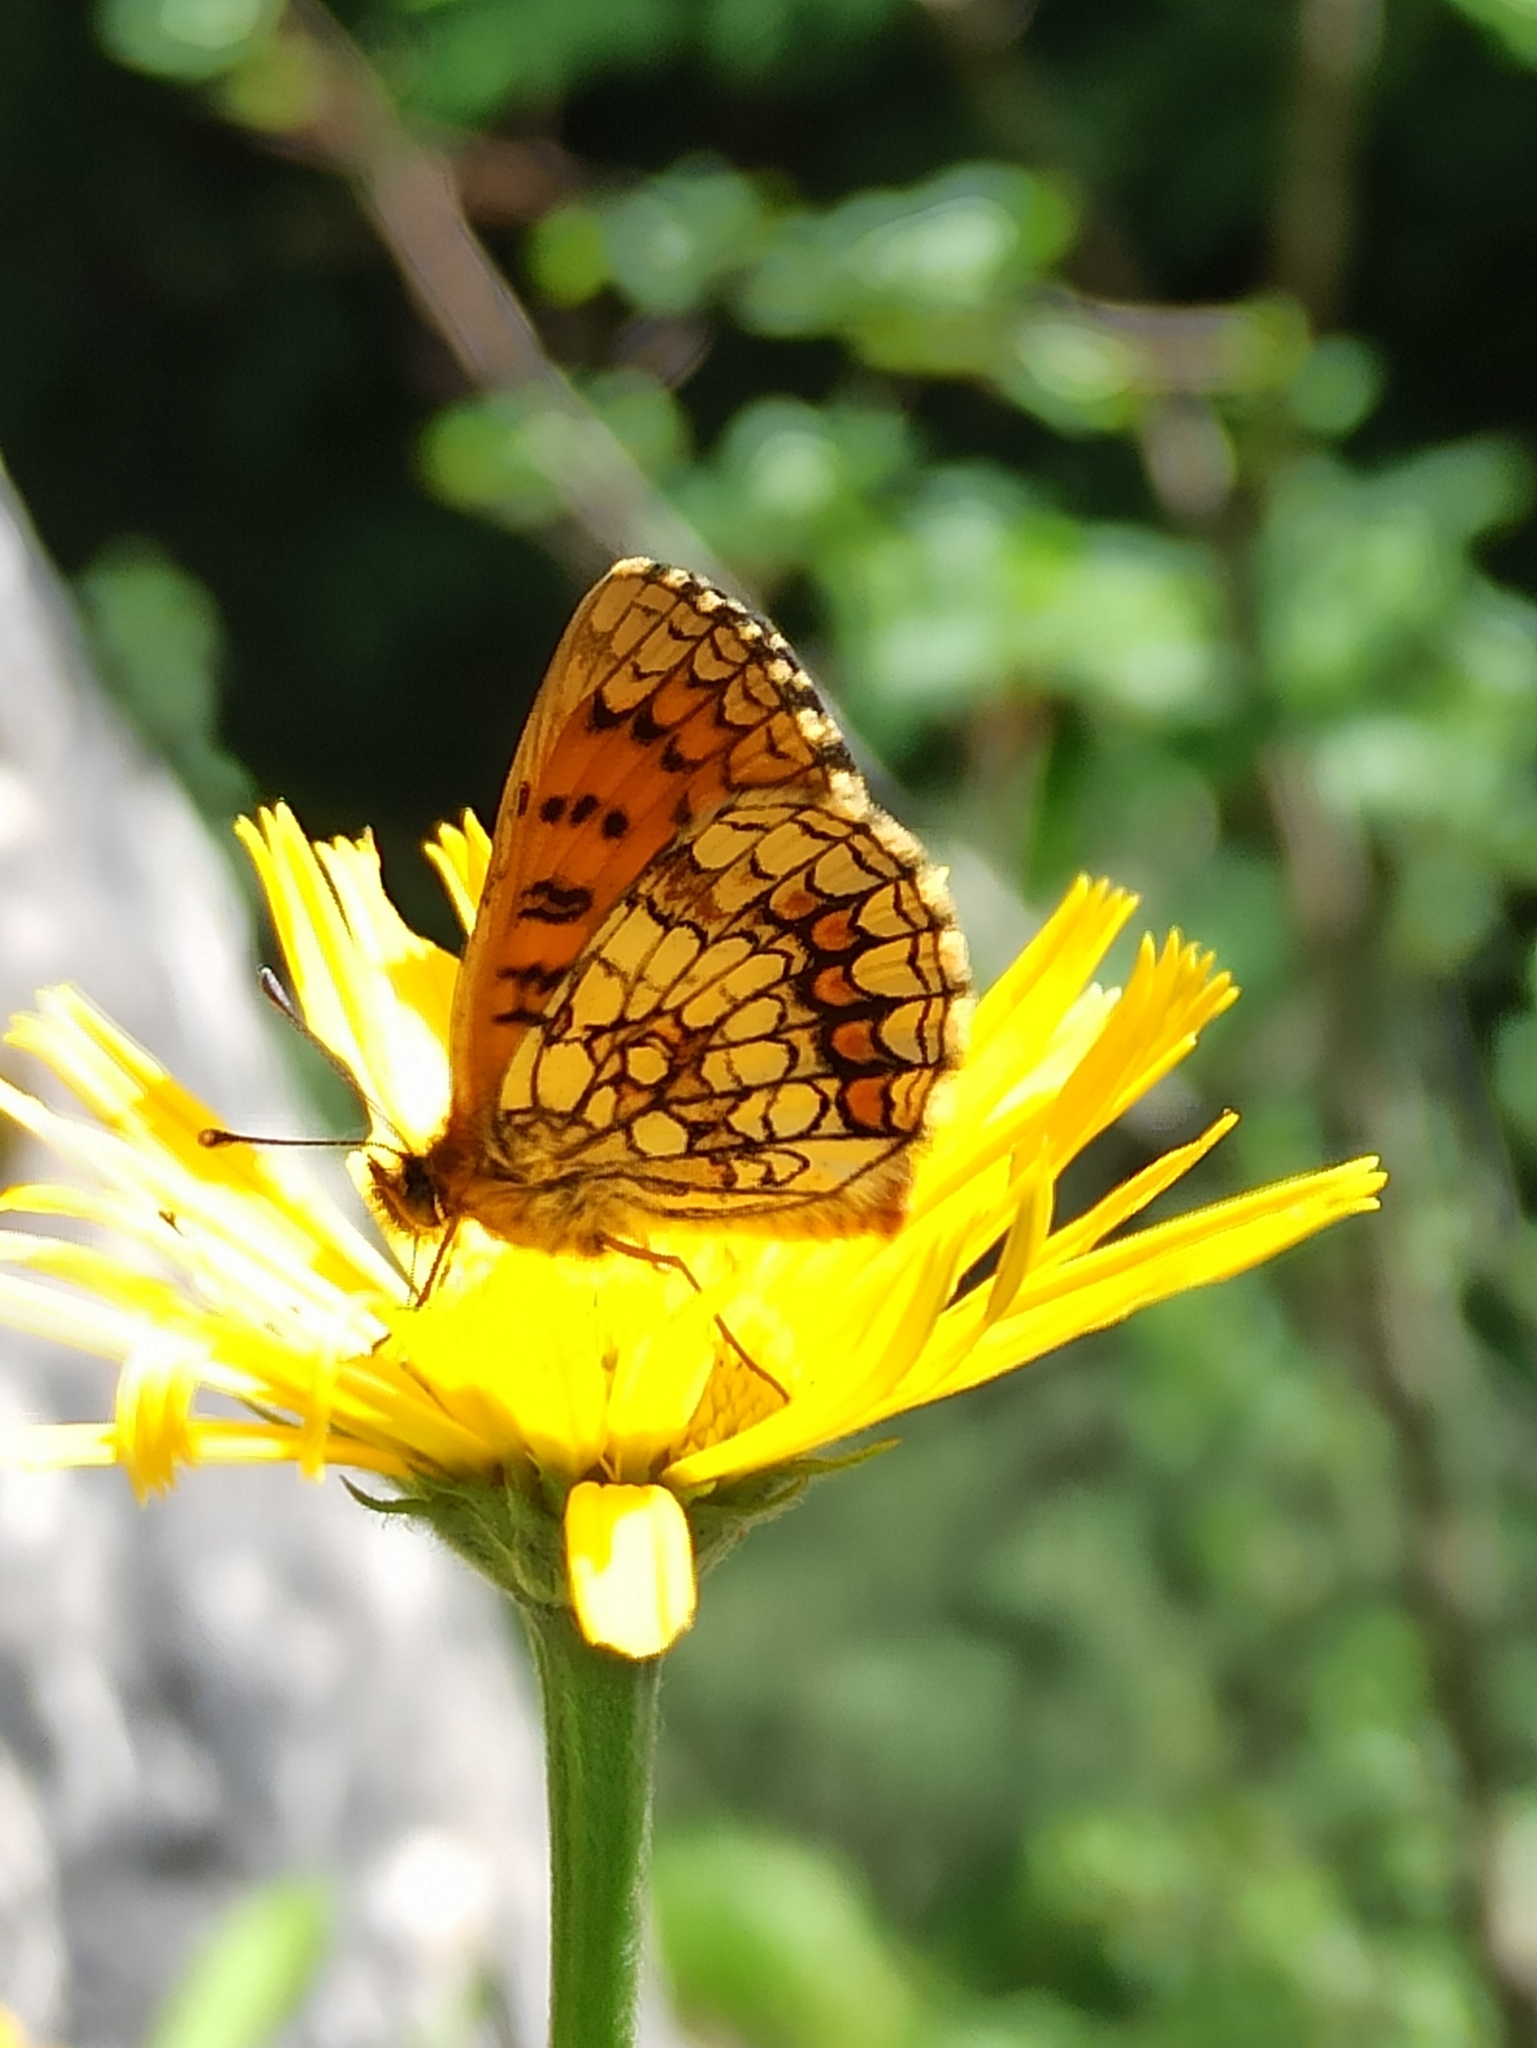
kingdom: Animalia
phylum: Arthropoda
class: Insecta
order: Lepidoptera
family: Nymphalidae
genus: Melitaea
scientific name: Melitaea athalia
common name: Heath fritillary
